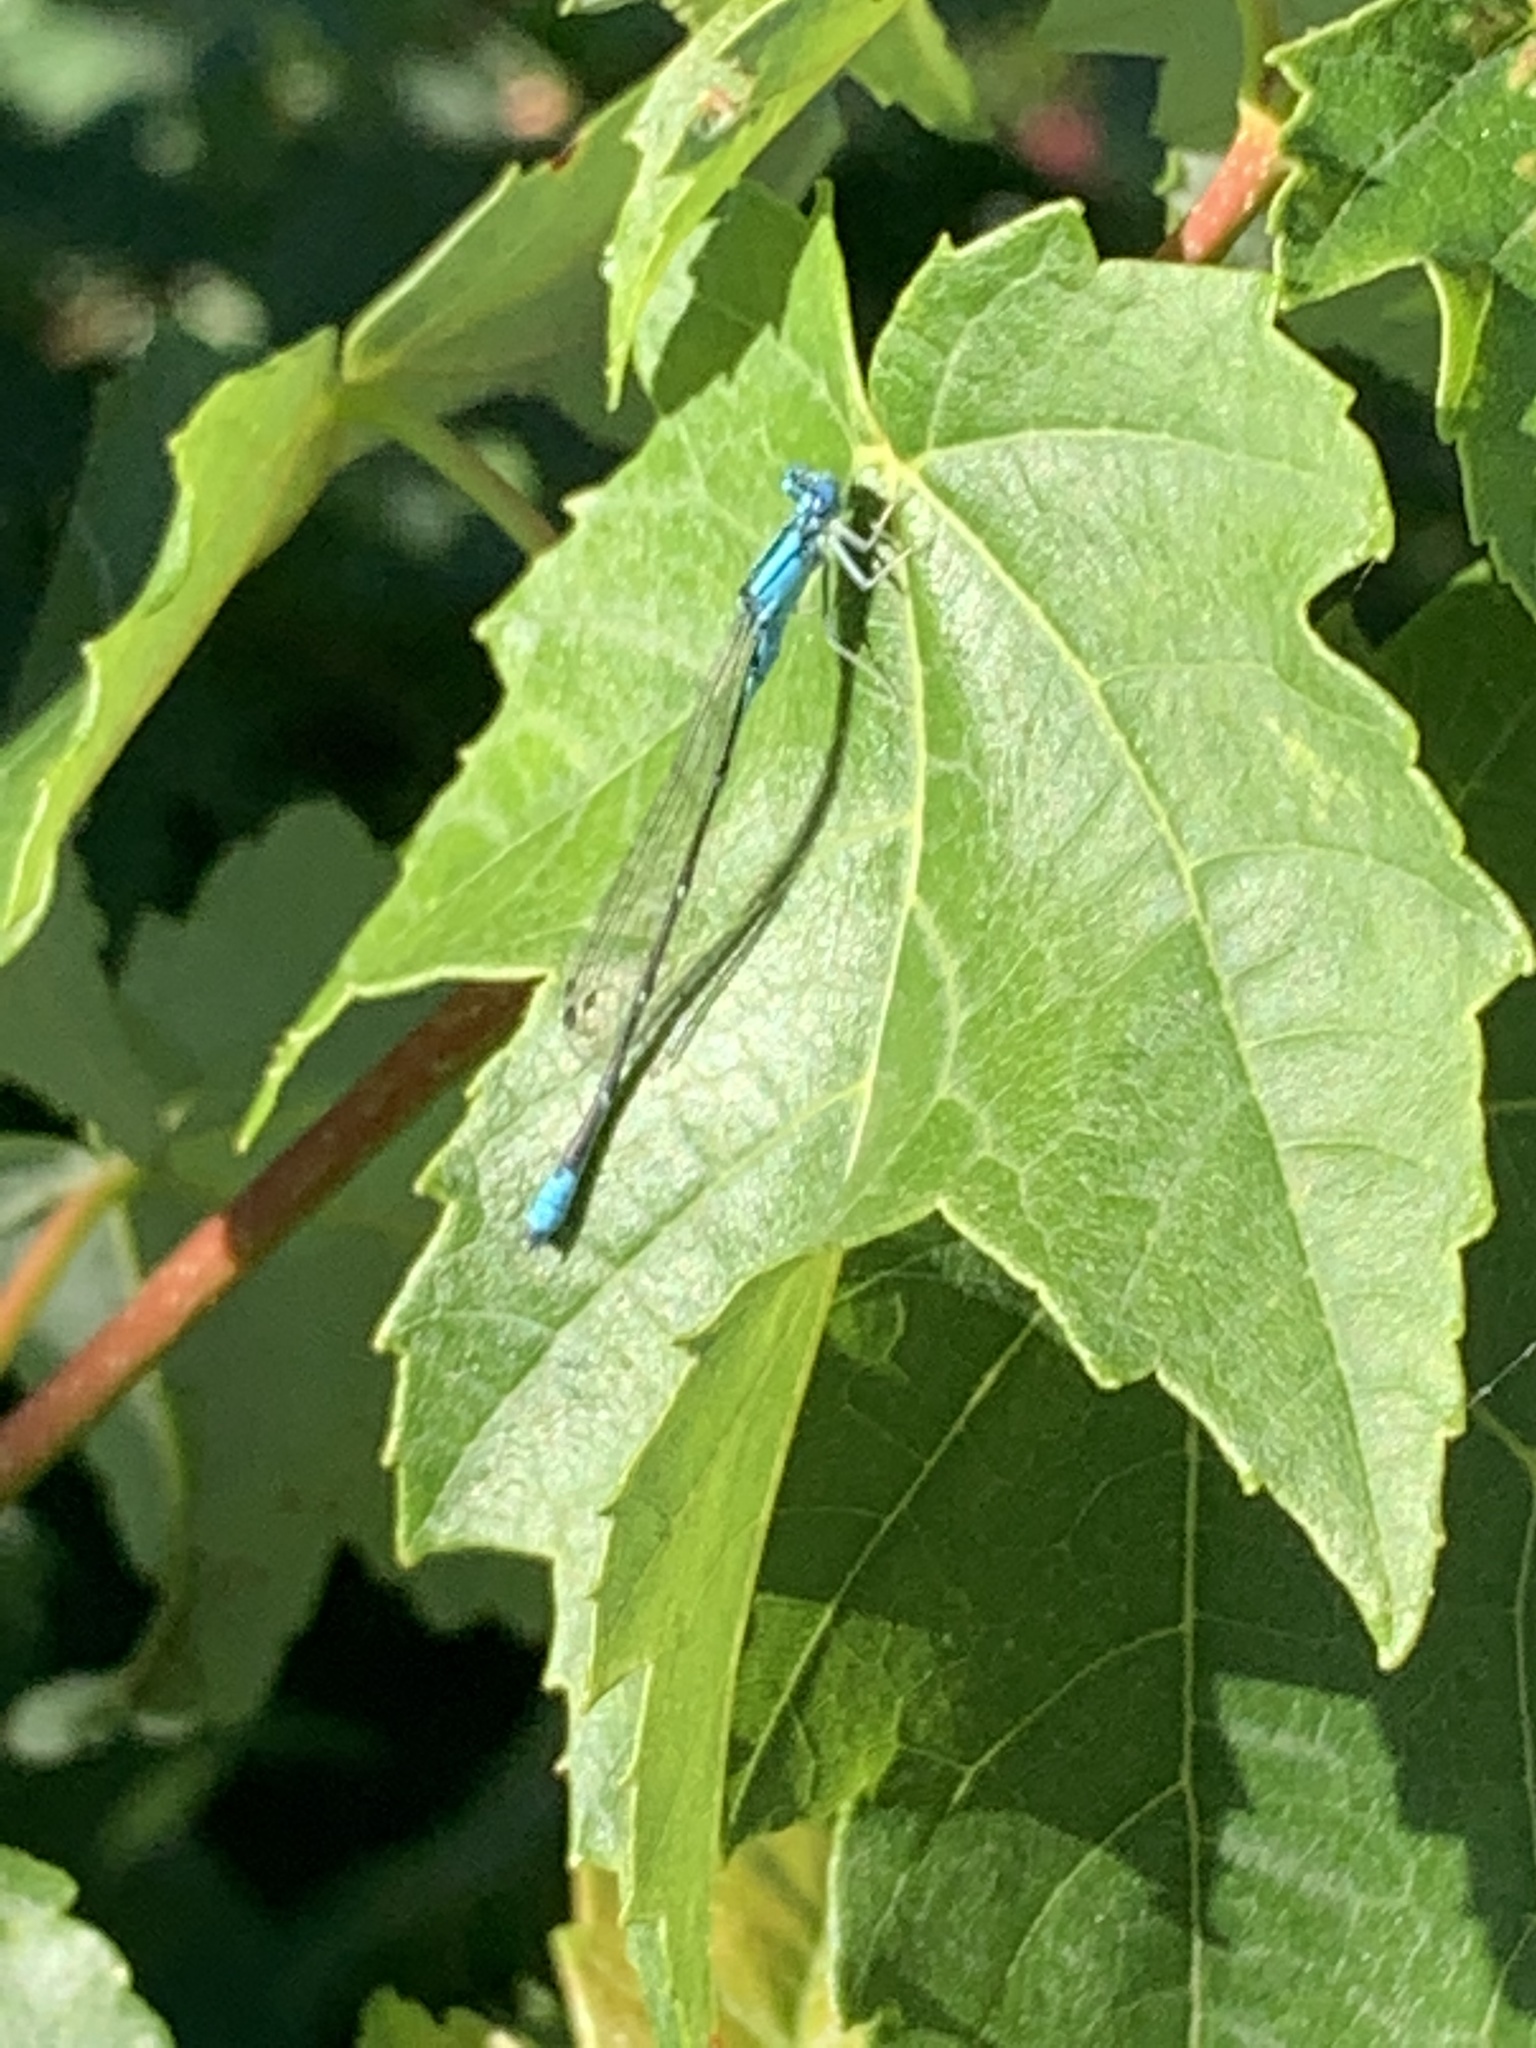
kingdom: Animalia
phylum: Arthropoda
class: Insecta
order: Odonata
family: Coenagrionidae
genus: Enallagma
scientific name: Enallagma traviatum
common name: Slender bluet
